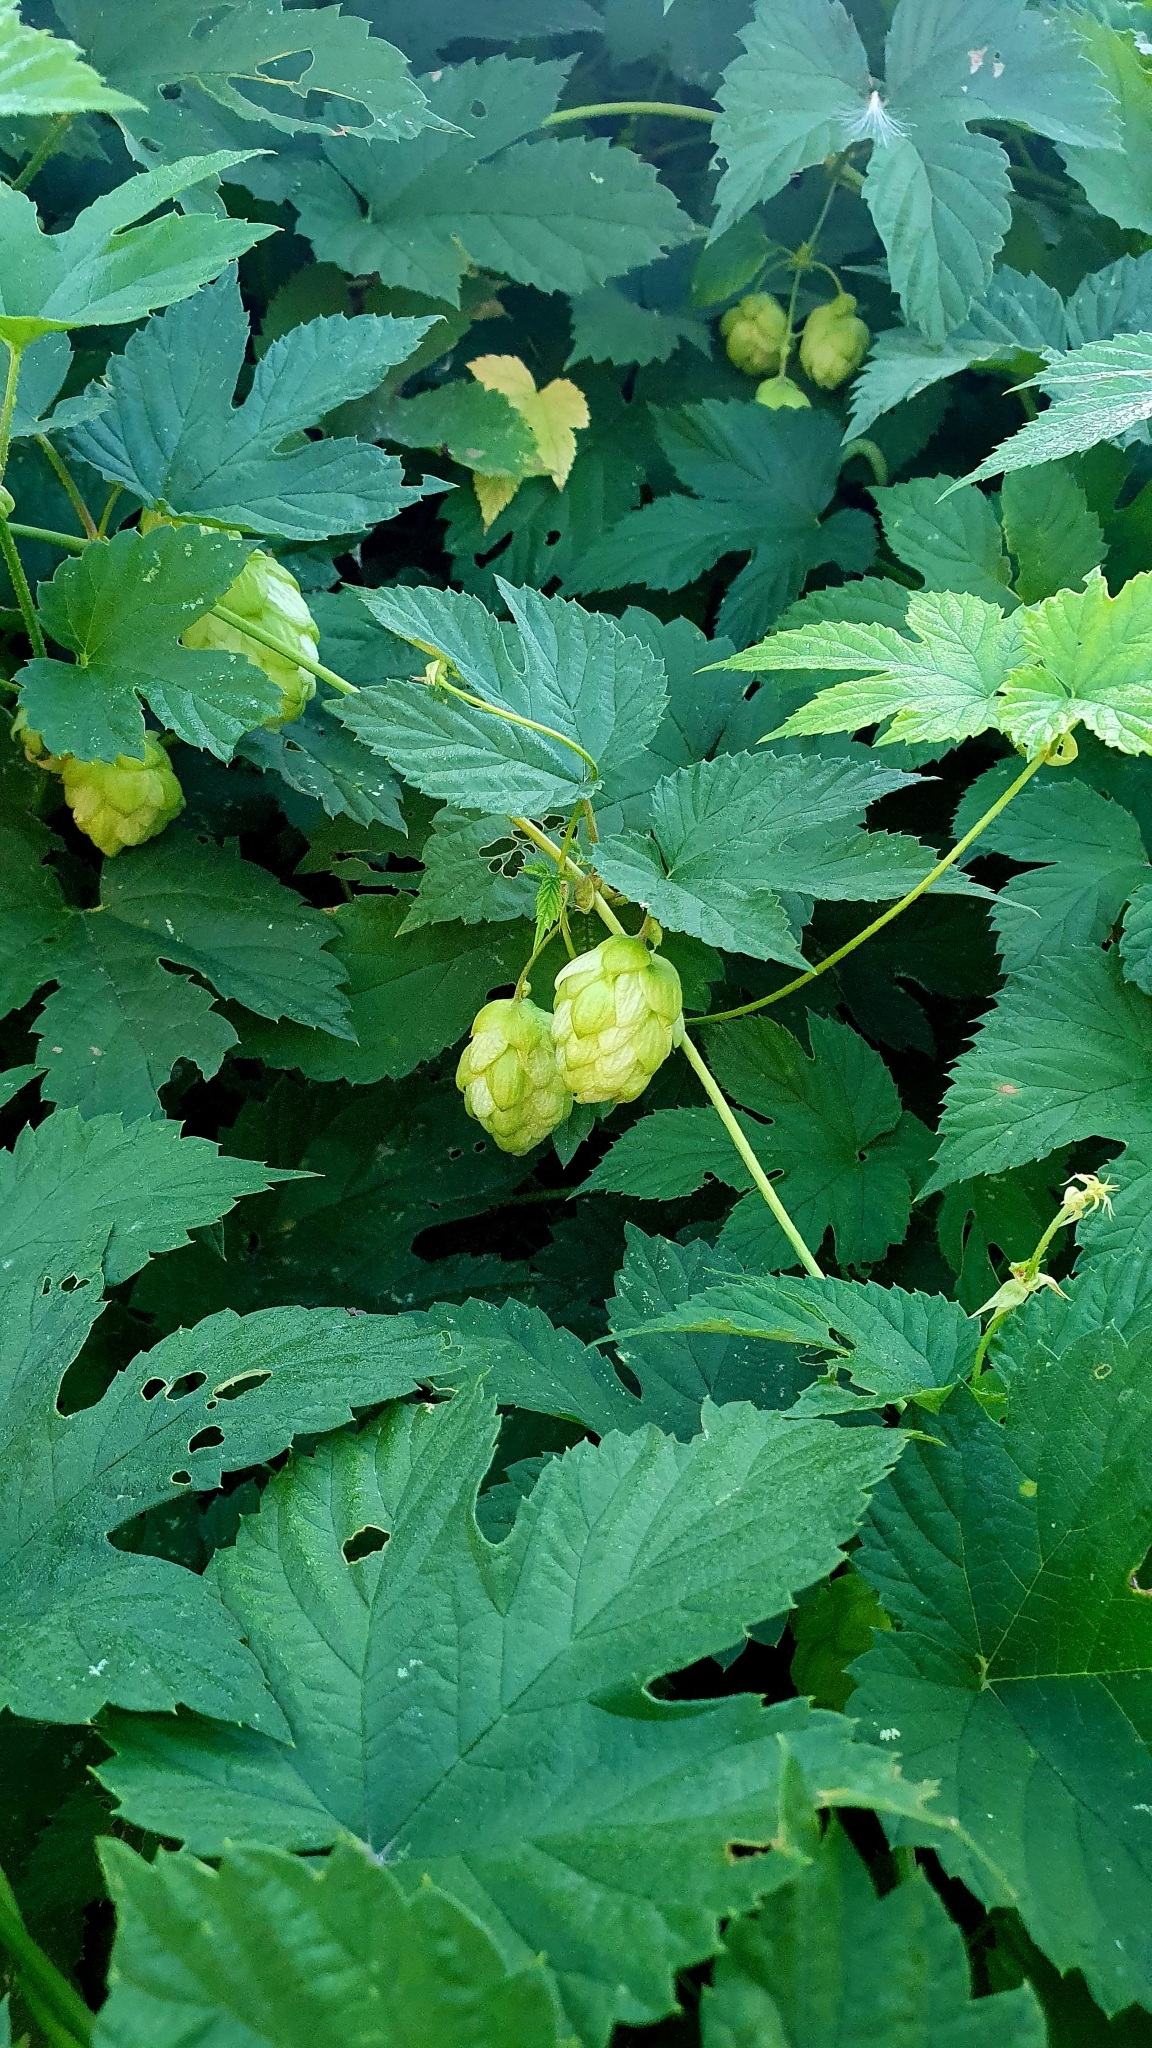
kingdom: Plantae
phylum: Tracheophyta
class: Magnoliopsida
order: Rosales
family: Cannabaceae
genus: Humulus
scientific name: Humulus lupulus
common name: Hop
